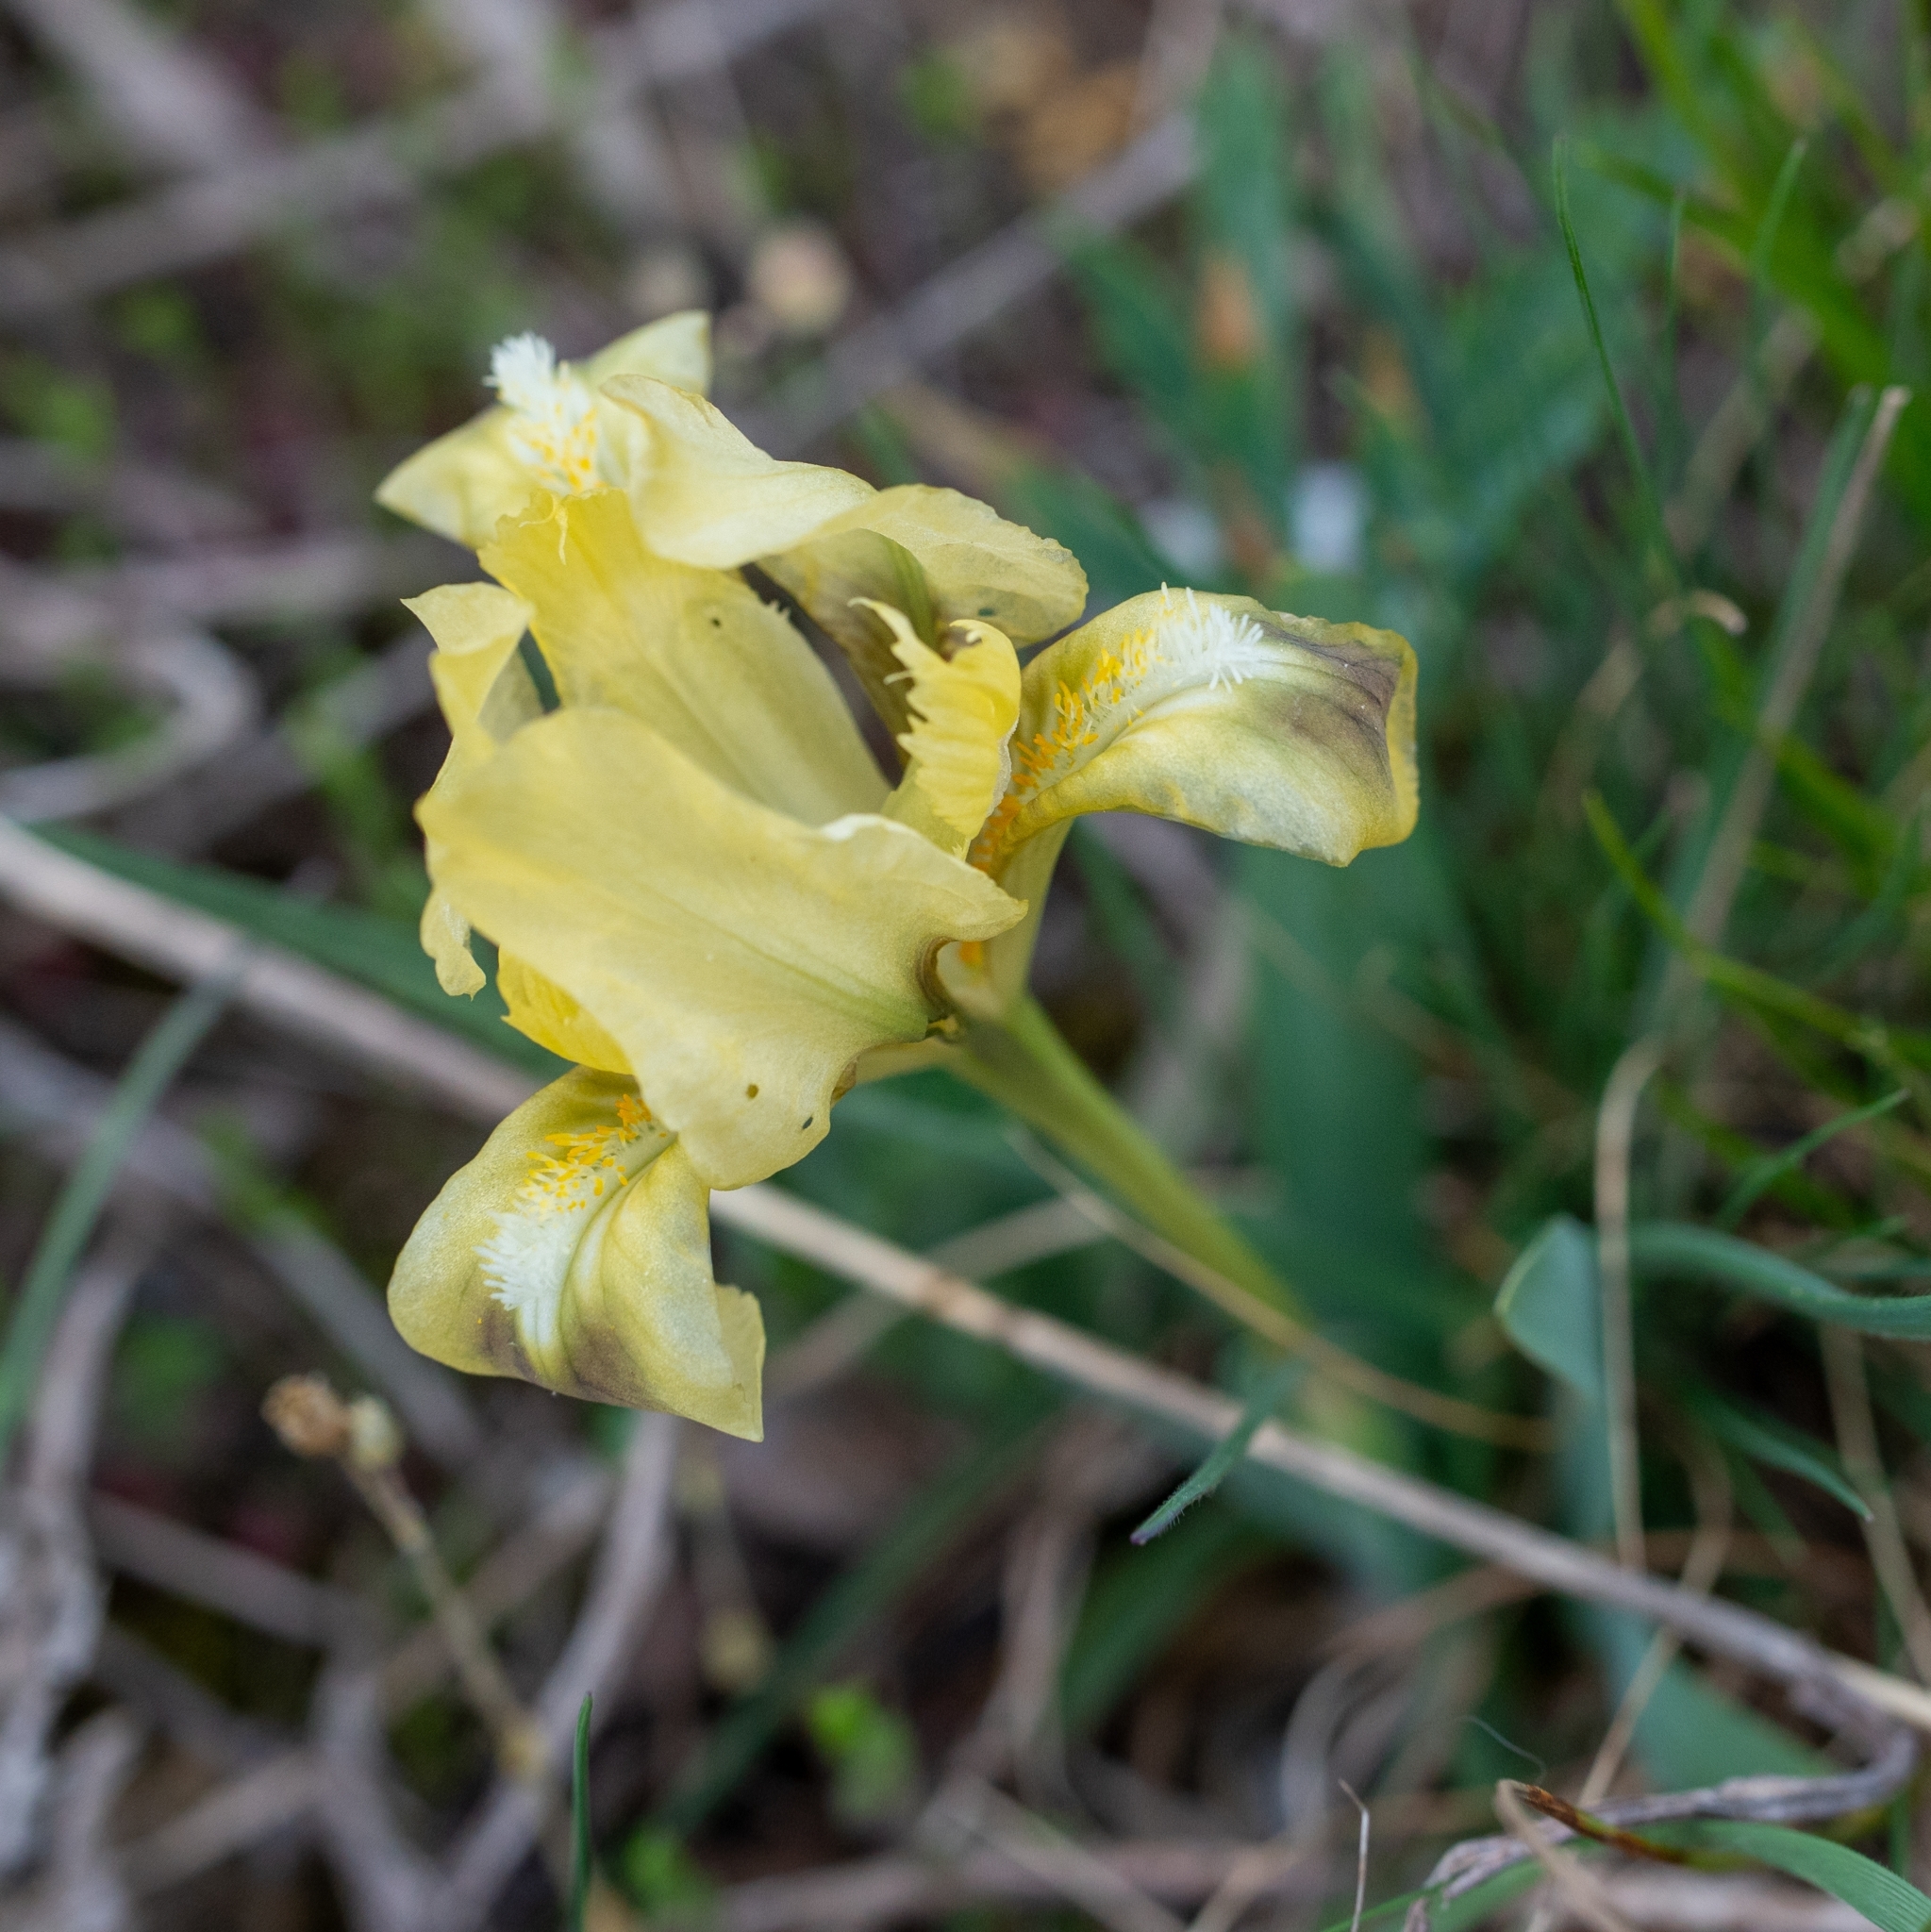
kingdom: Plantae
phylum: Tracheophyta
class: Liliopsida
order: Asparagales
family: Iridaceae
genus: Iris
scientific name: Iris pumila
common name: Dwarf iris
